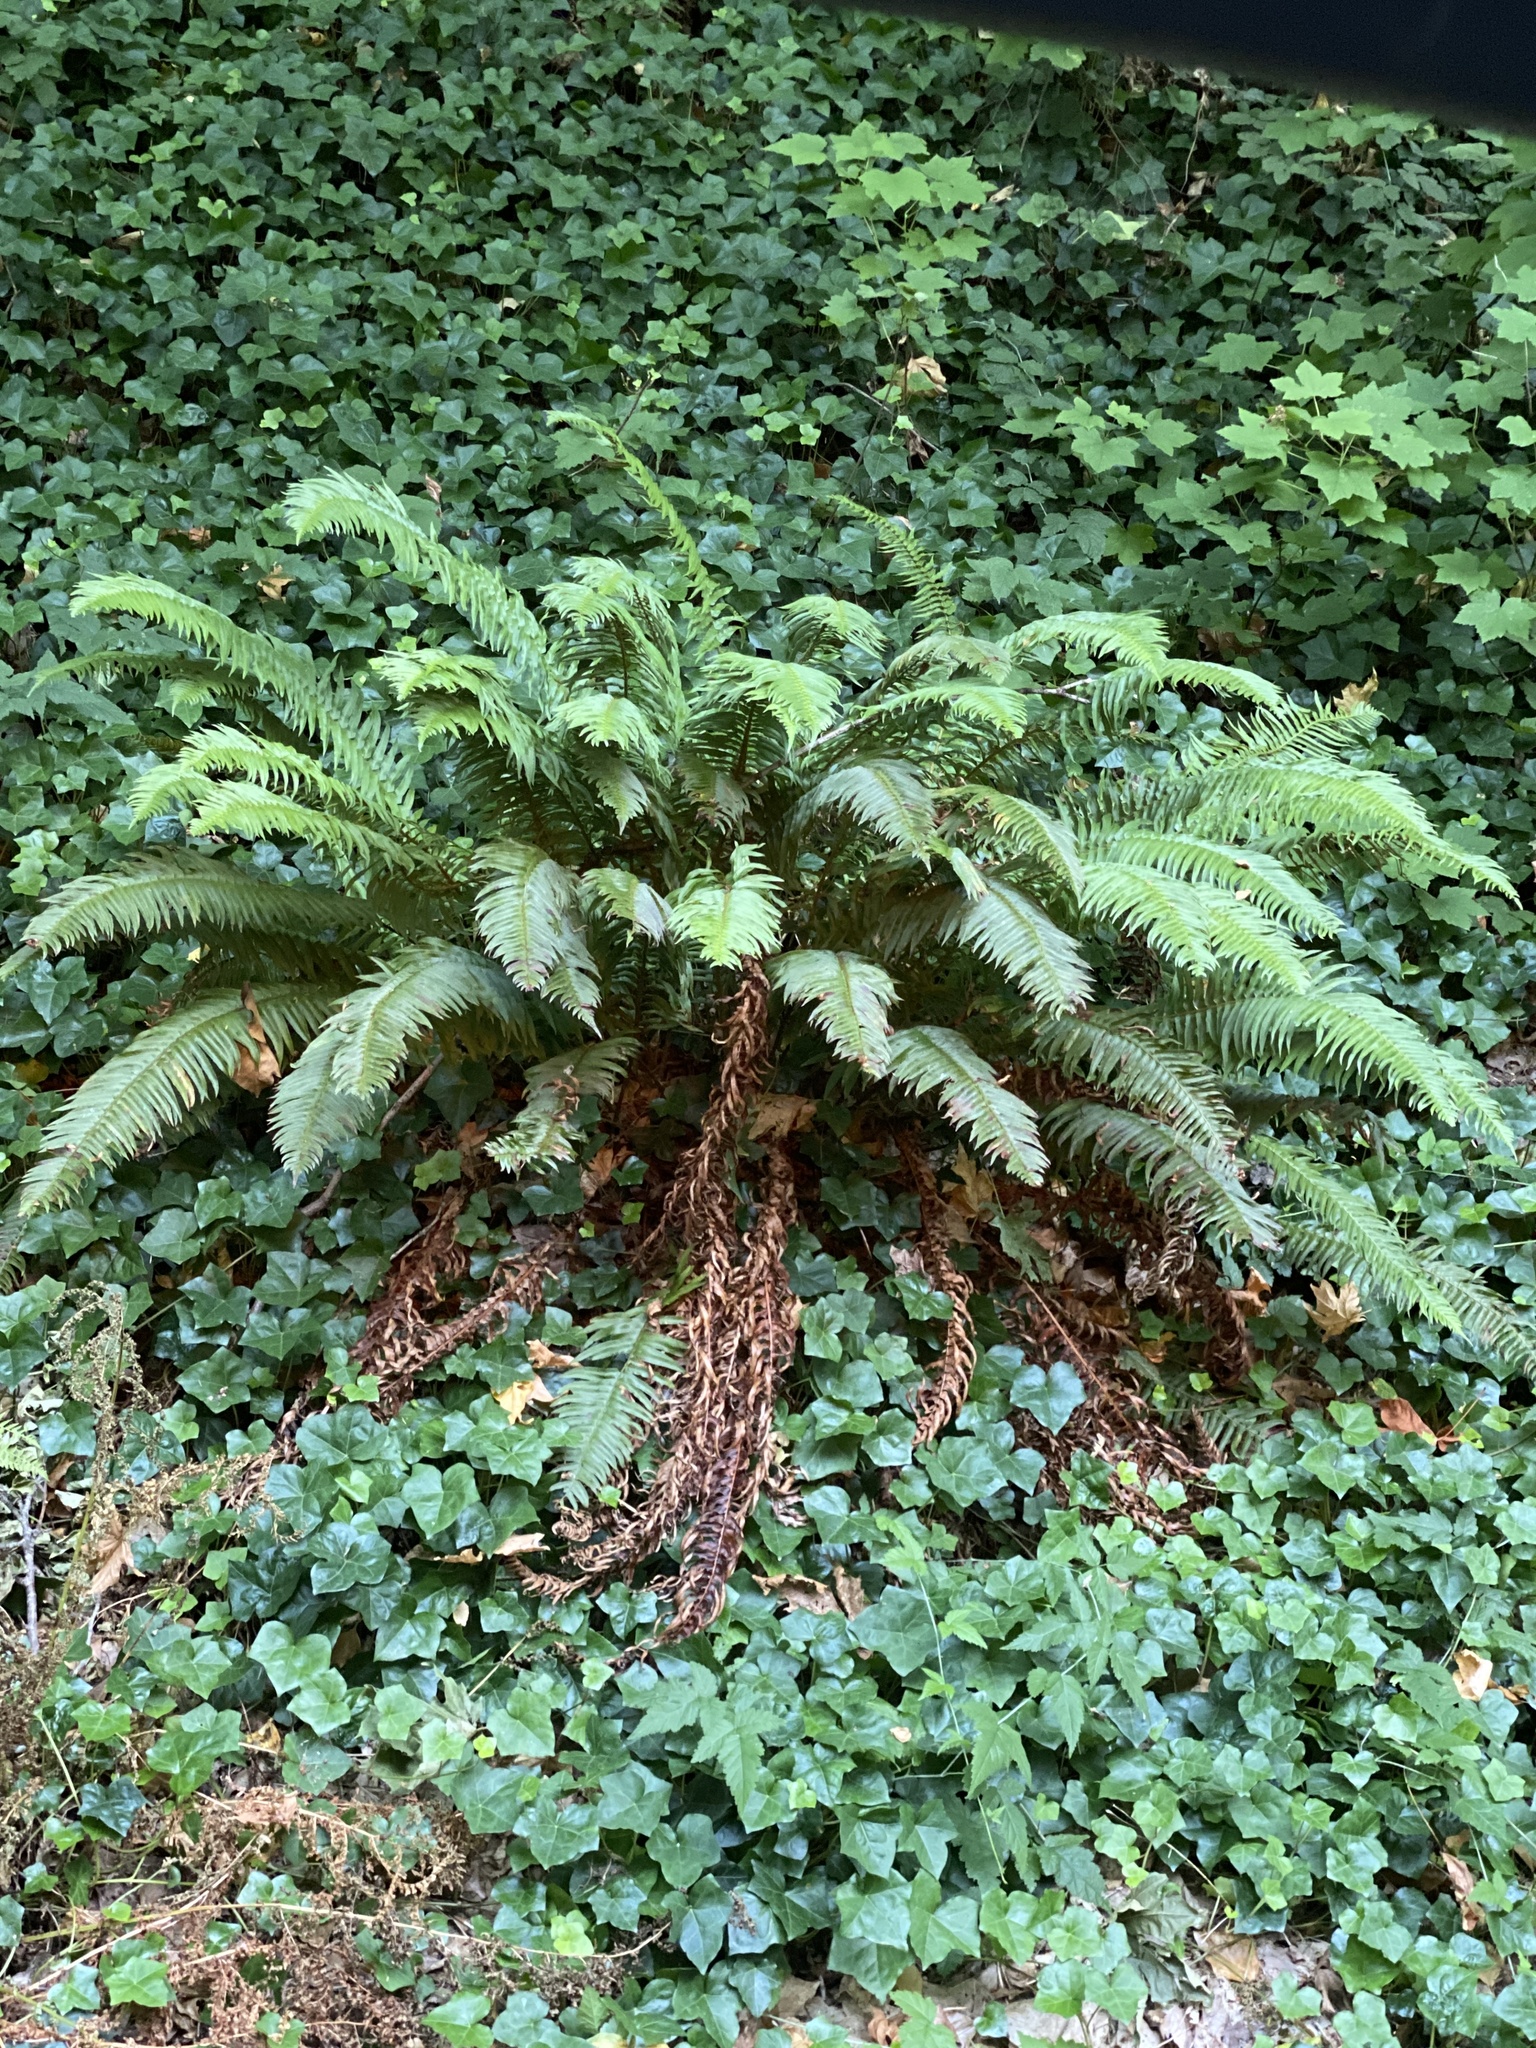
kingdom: Plantae
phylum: Tracheophyta
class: Polypodiopsida
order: Polypodiales
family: Dryopteridaceae
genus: Polystichum
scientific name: Polystichum munitum
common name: Western sword-fern
